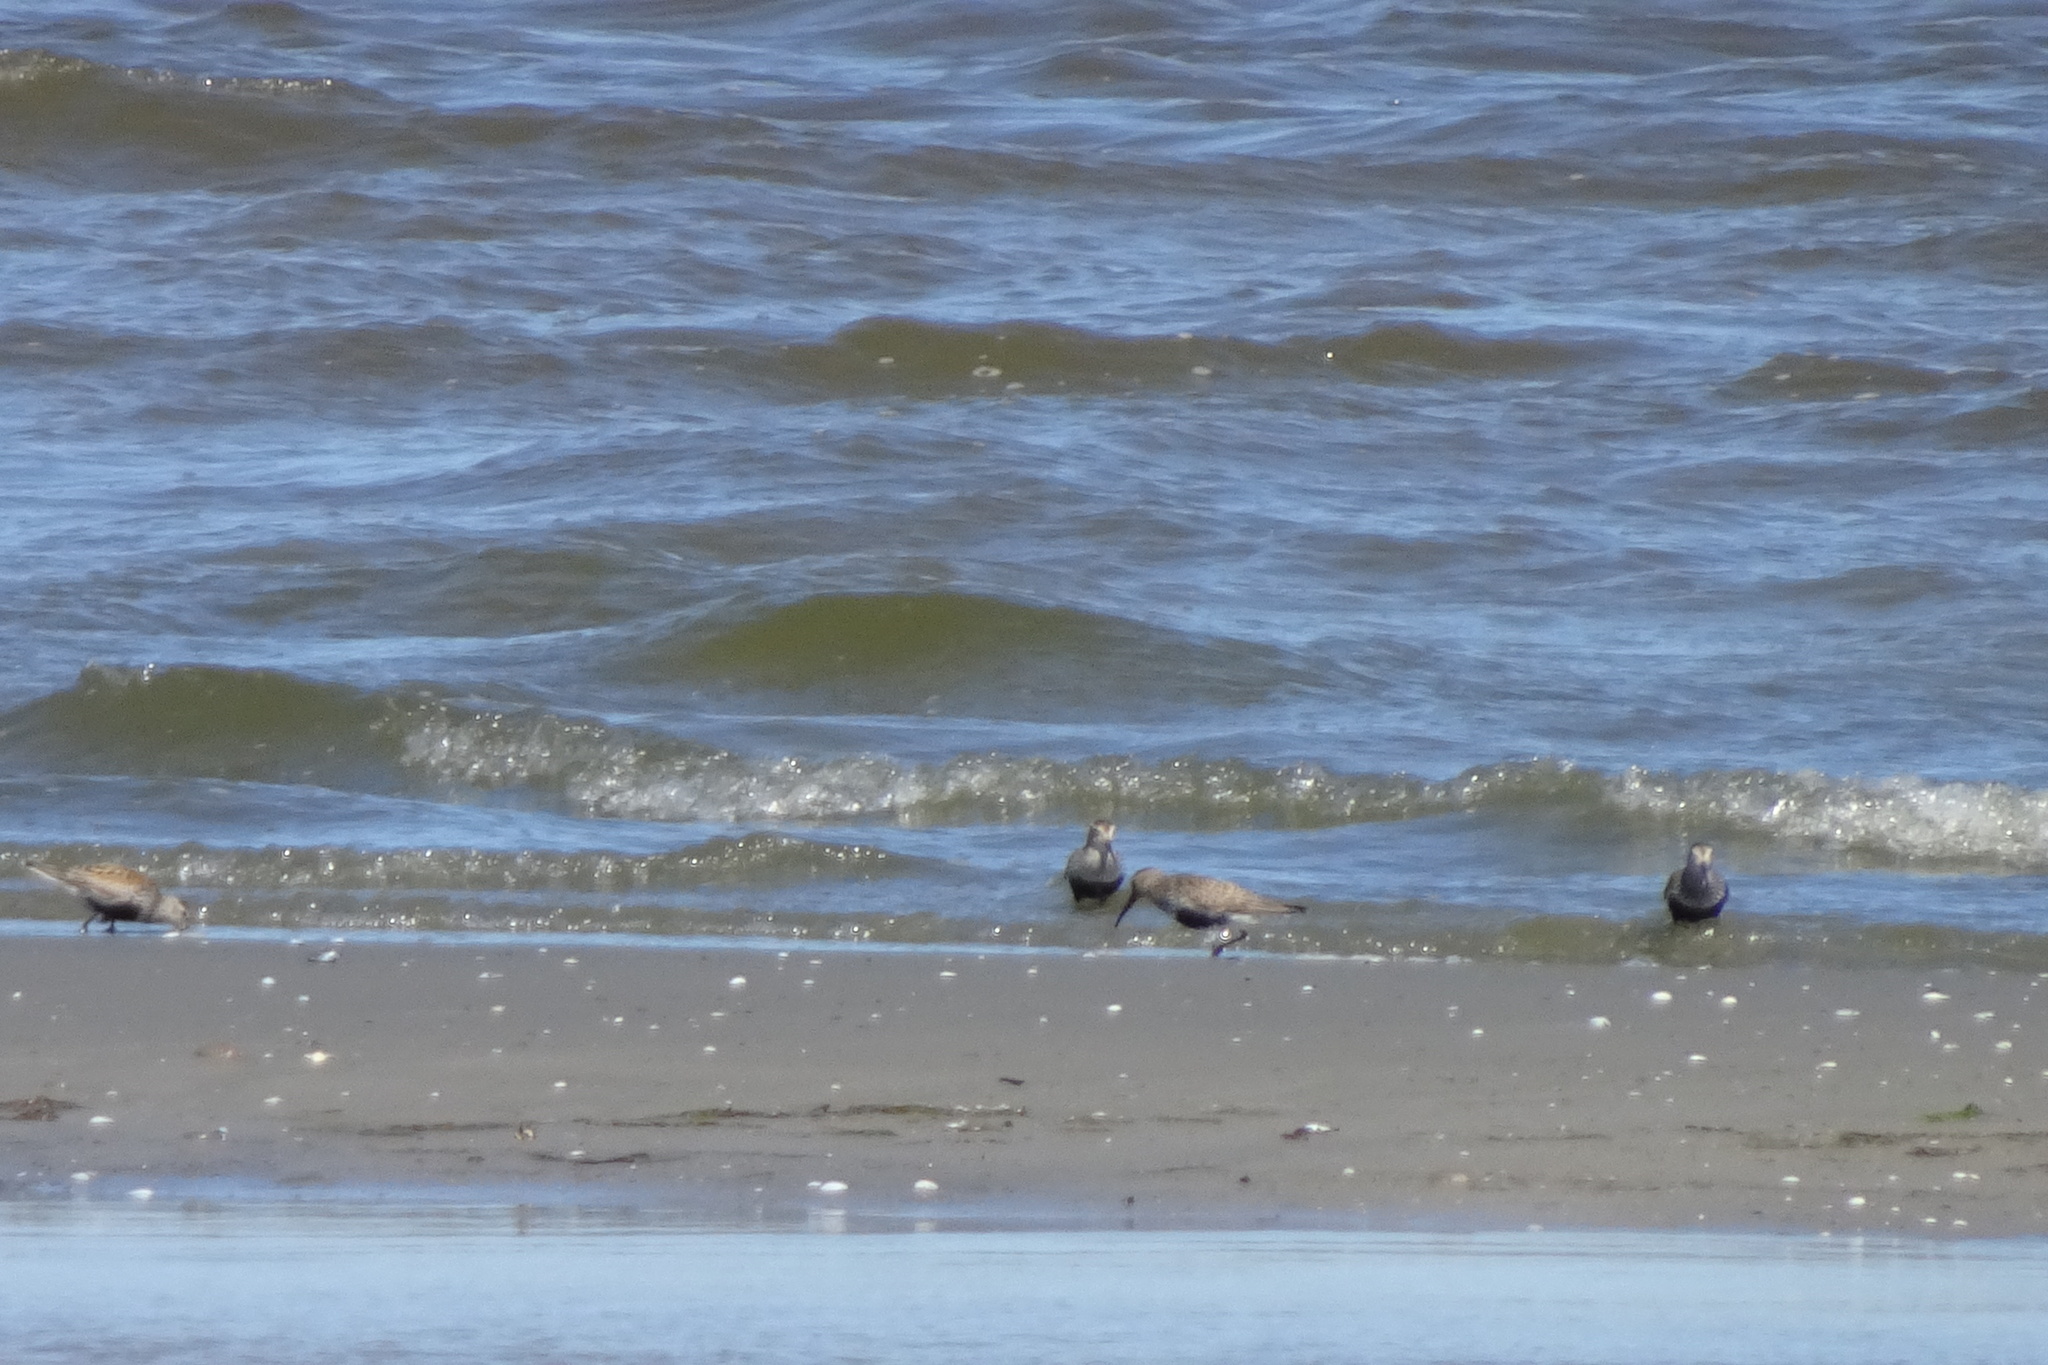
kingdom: Animalia
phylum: Chordata
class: Aves
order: Charadriiformes
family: Scolopacidae
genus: Calidris
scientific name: Calidris alpina
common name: Dunlin
